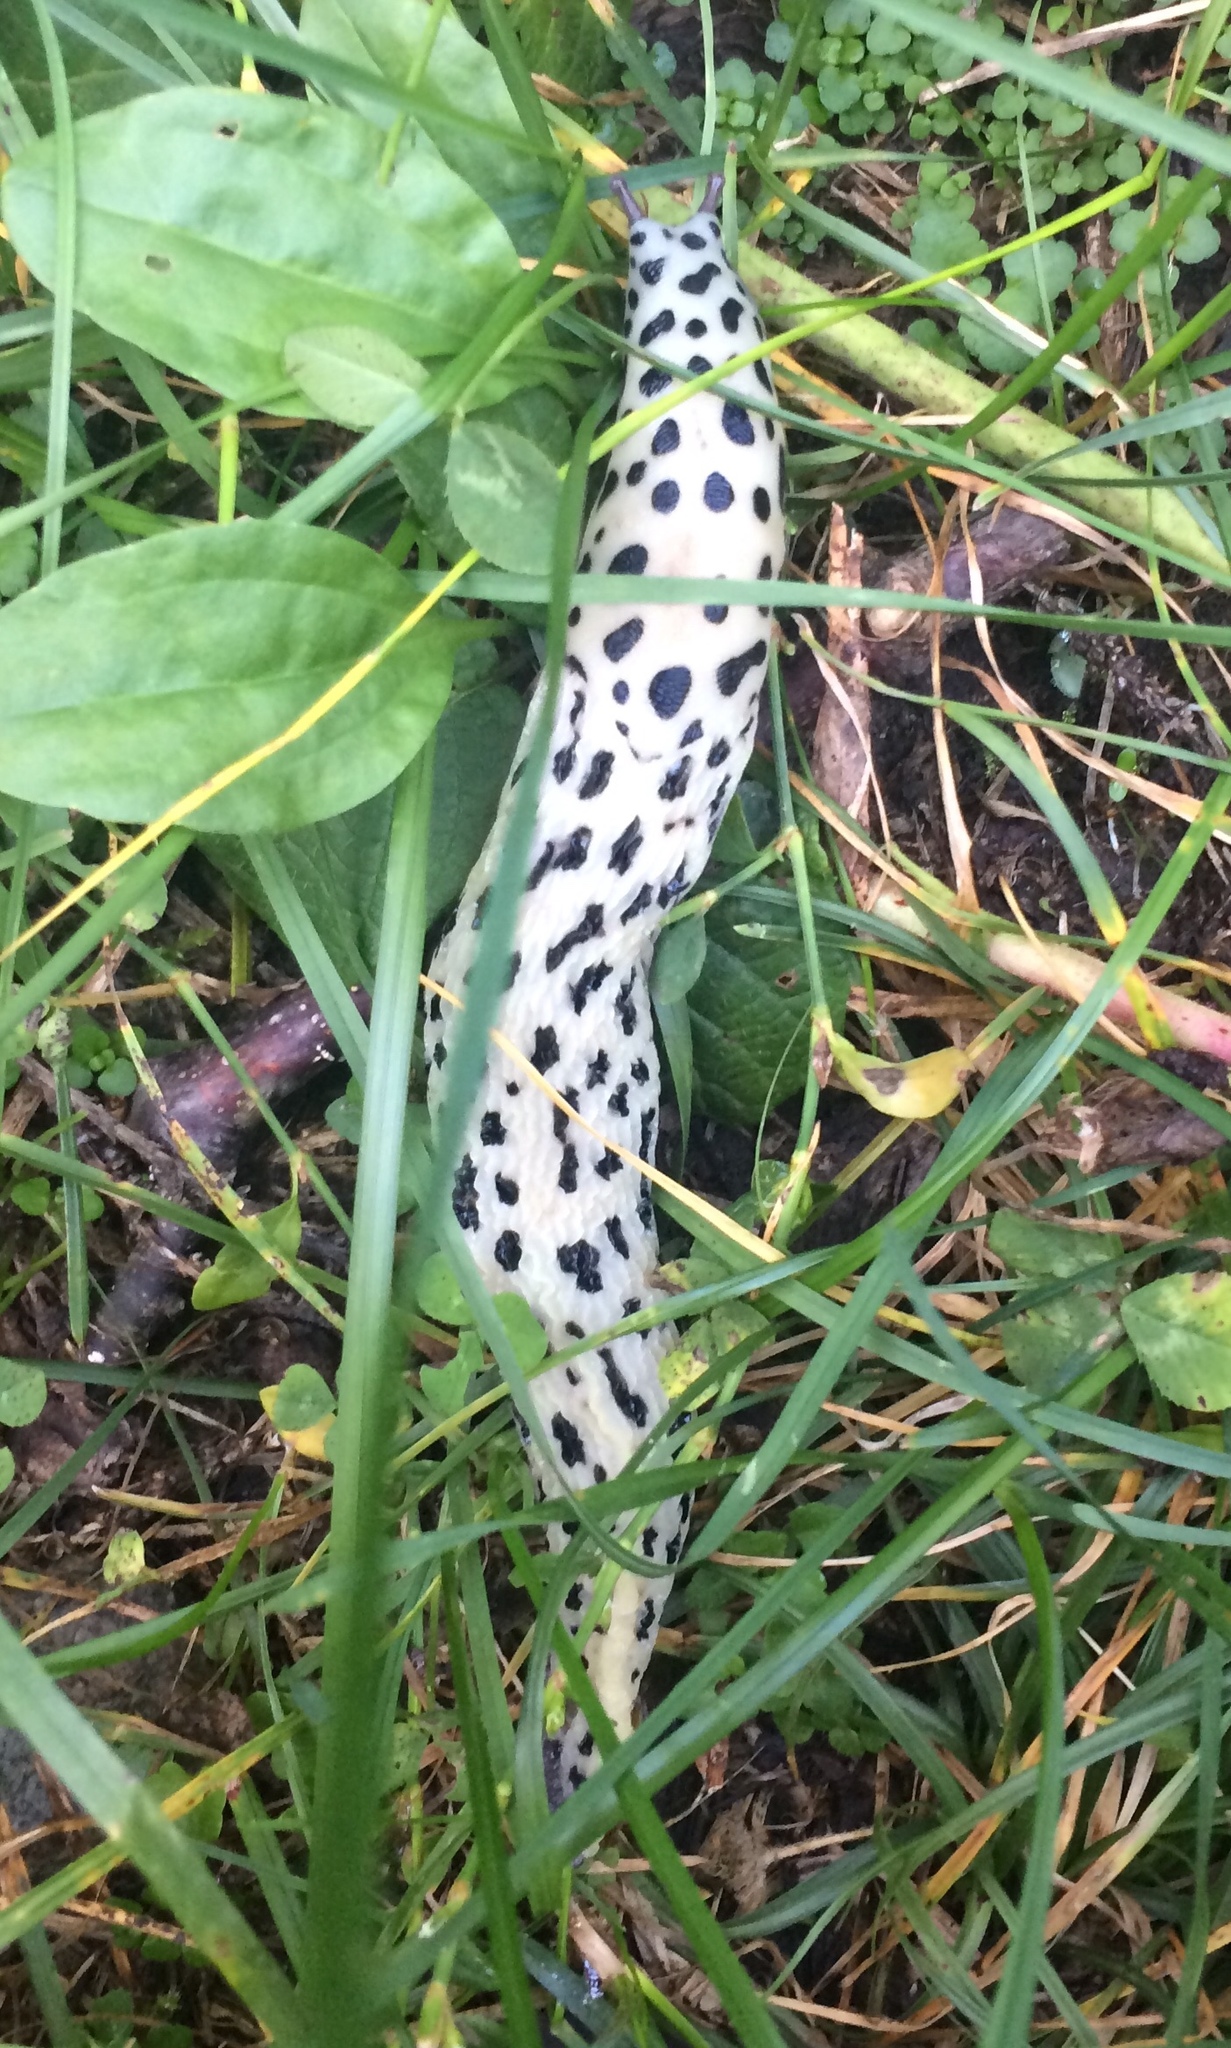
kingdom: Animalia
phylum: Mollusca
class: Gastropoda
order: Stylommatophora
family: Limacidae
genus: Limax
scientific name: Limax maximus
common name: Great grey slug
